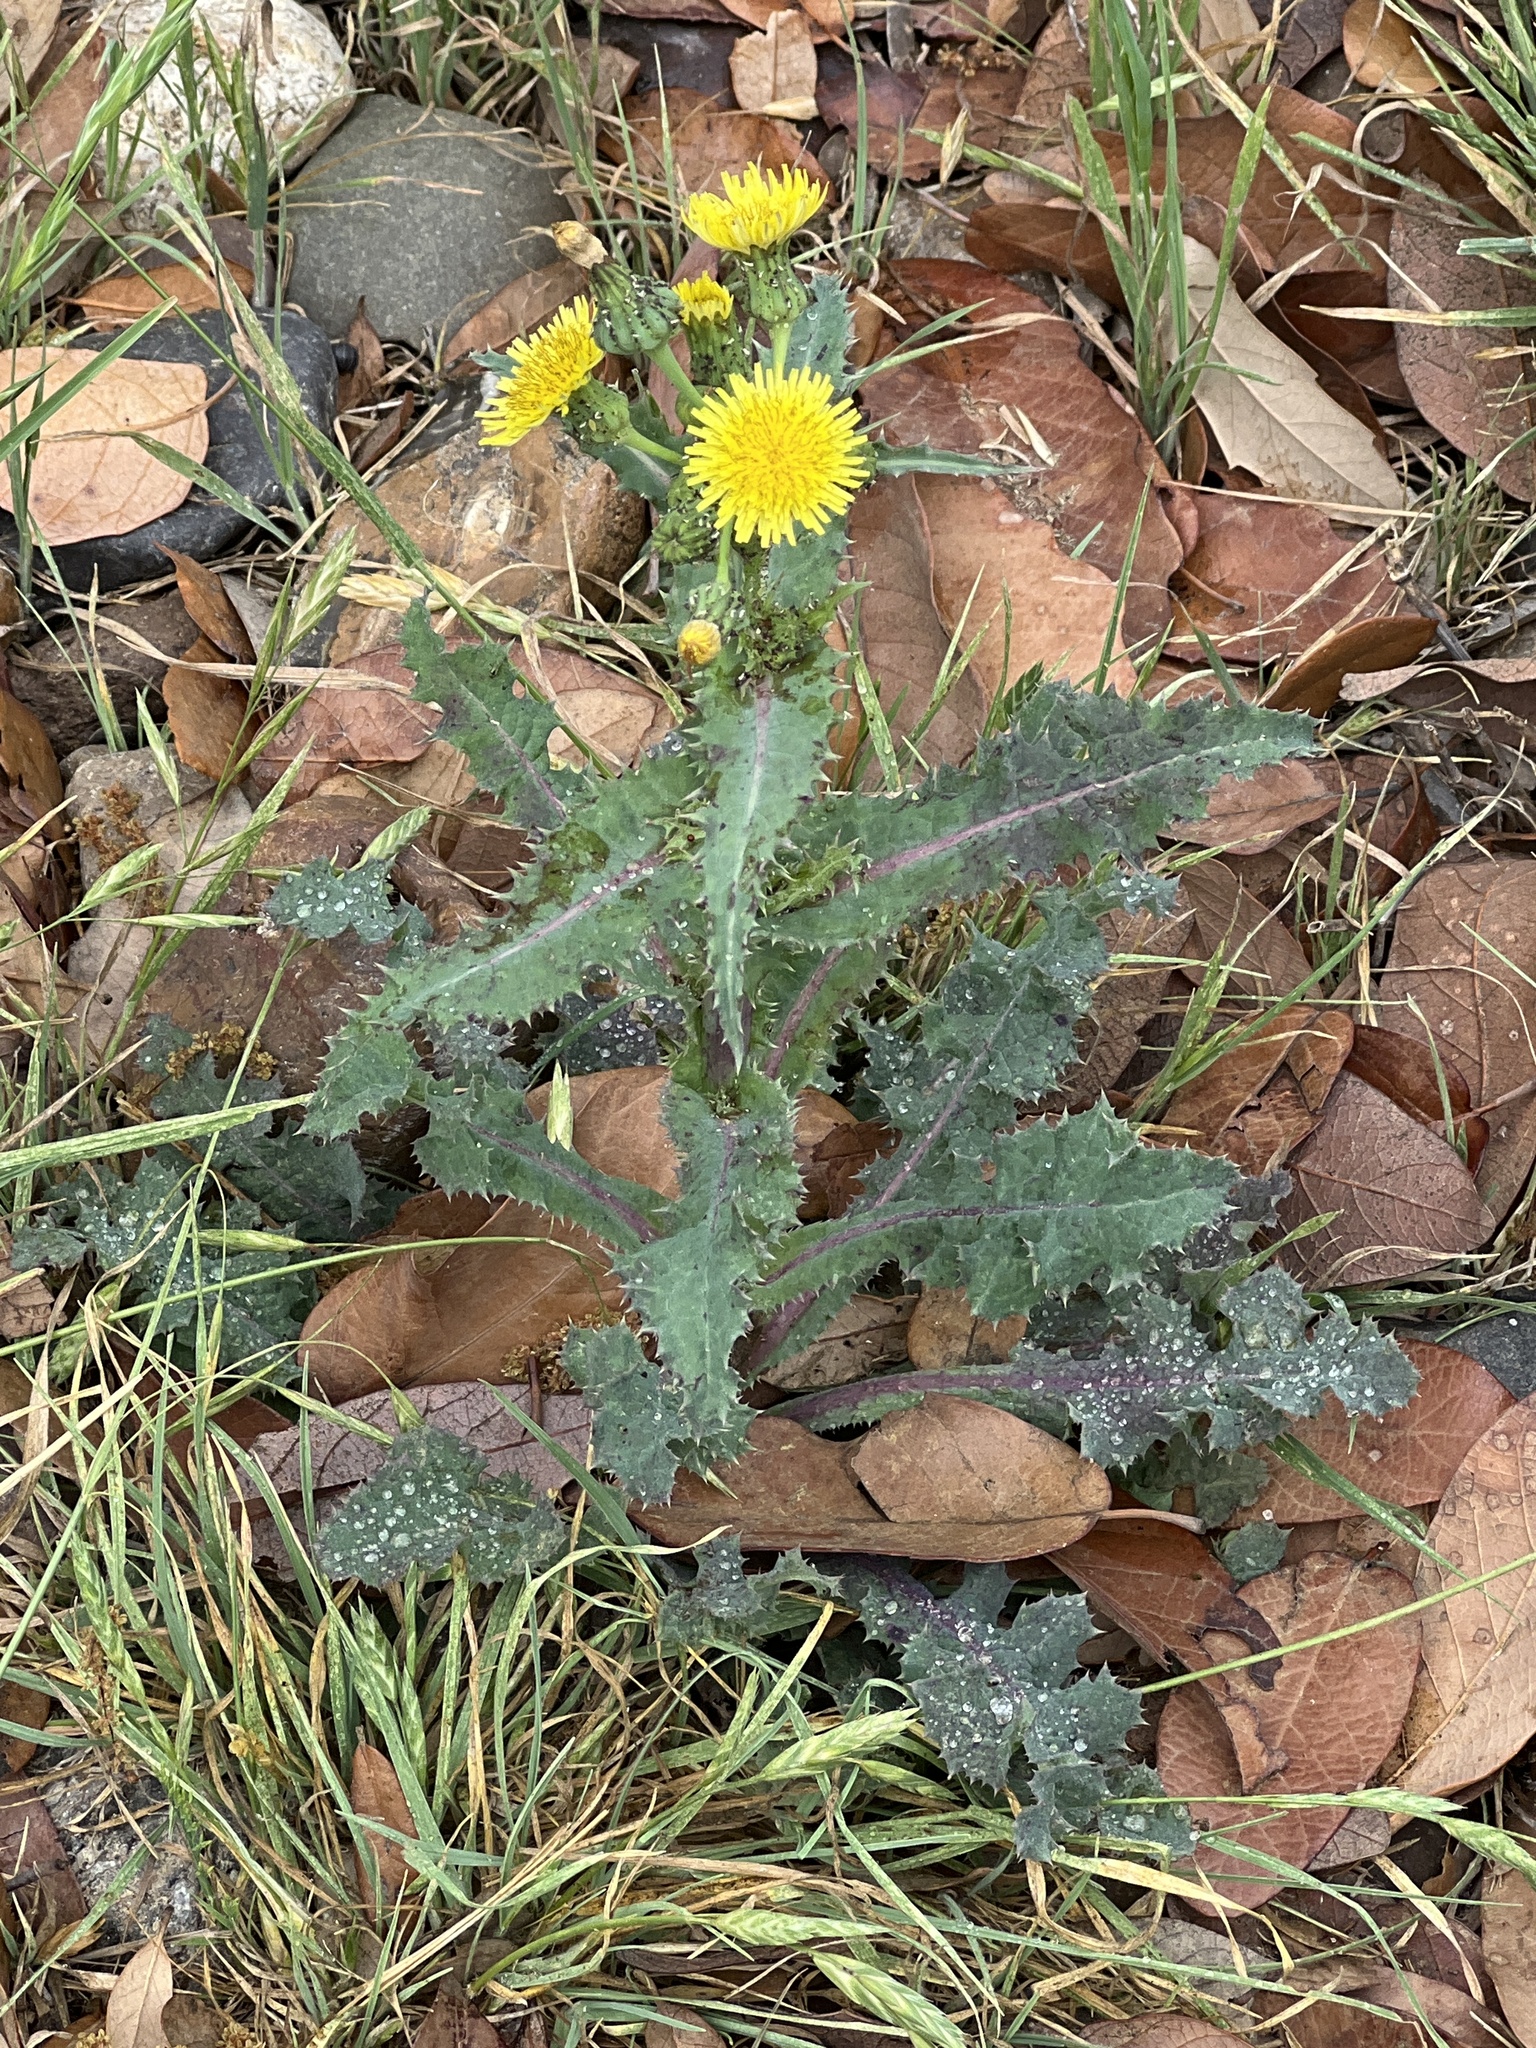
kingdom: Plantae
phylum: Tracheophyta
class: Magnoliopsida
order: Asterales
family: Asteraceae
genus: Sonchus
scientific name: Sonchus asper
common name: Prickly sow-thistle
